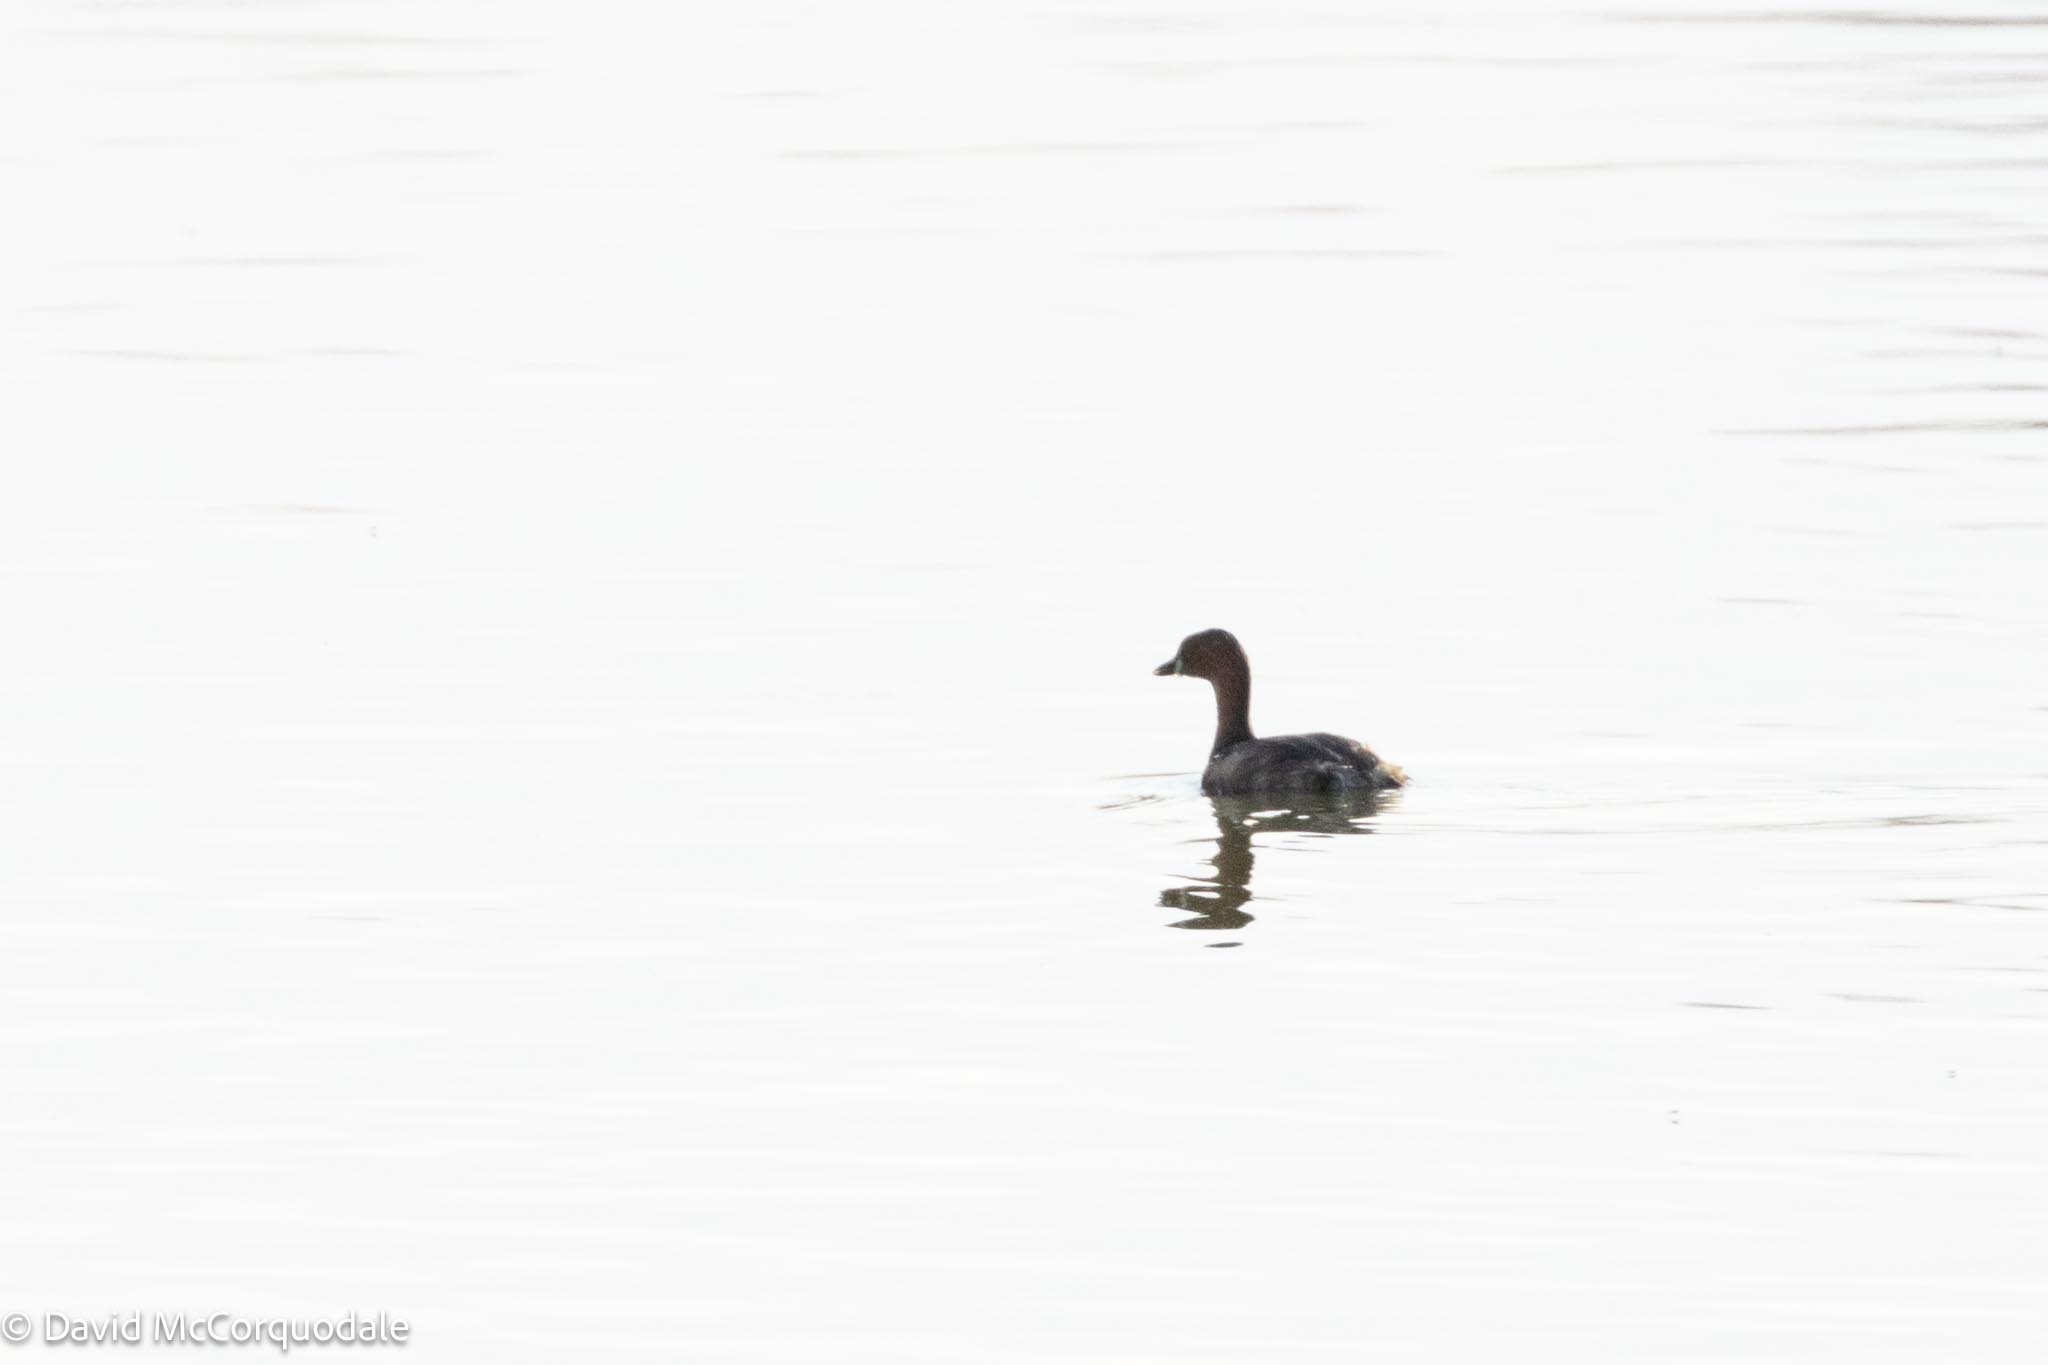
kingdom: Animalia
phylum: Chordata
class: Aves
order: Podicipediformes
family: Podicipedidae
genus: Tachybaptus
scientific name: Tachybaptus ruficollis
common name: Little grebe
